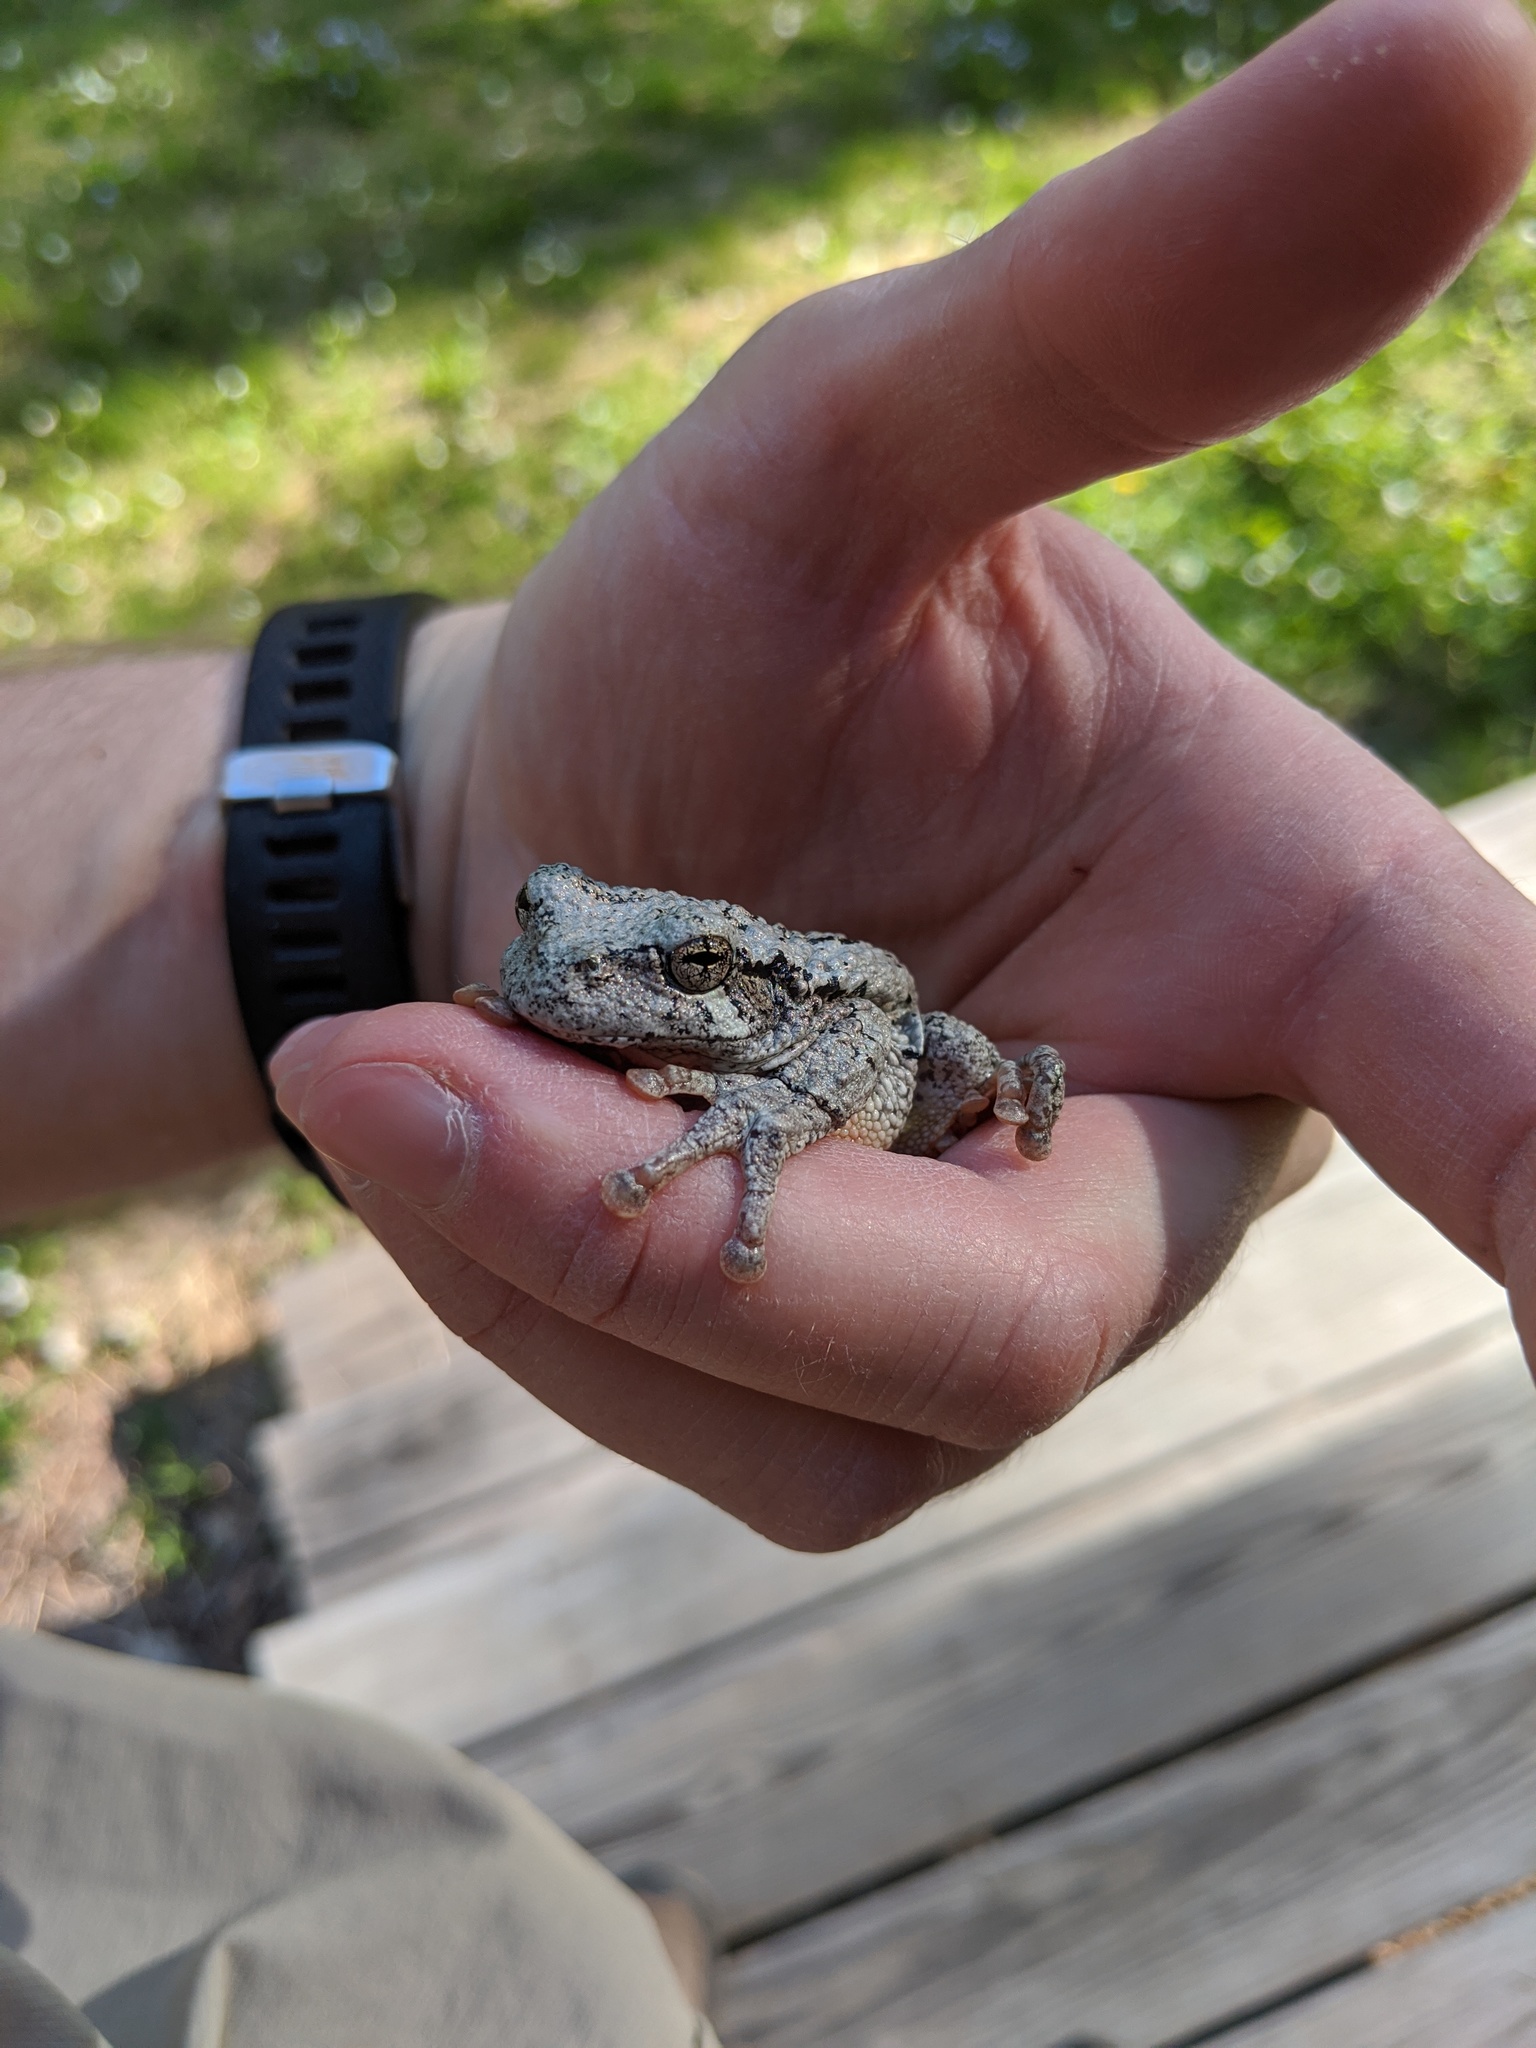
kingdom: Animalia
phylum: Chordata
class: Amphibia
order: Anura
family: Hylidae
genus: Dryophytes
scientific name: Dryophytes versicolor
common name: Gray treefrog
